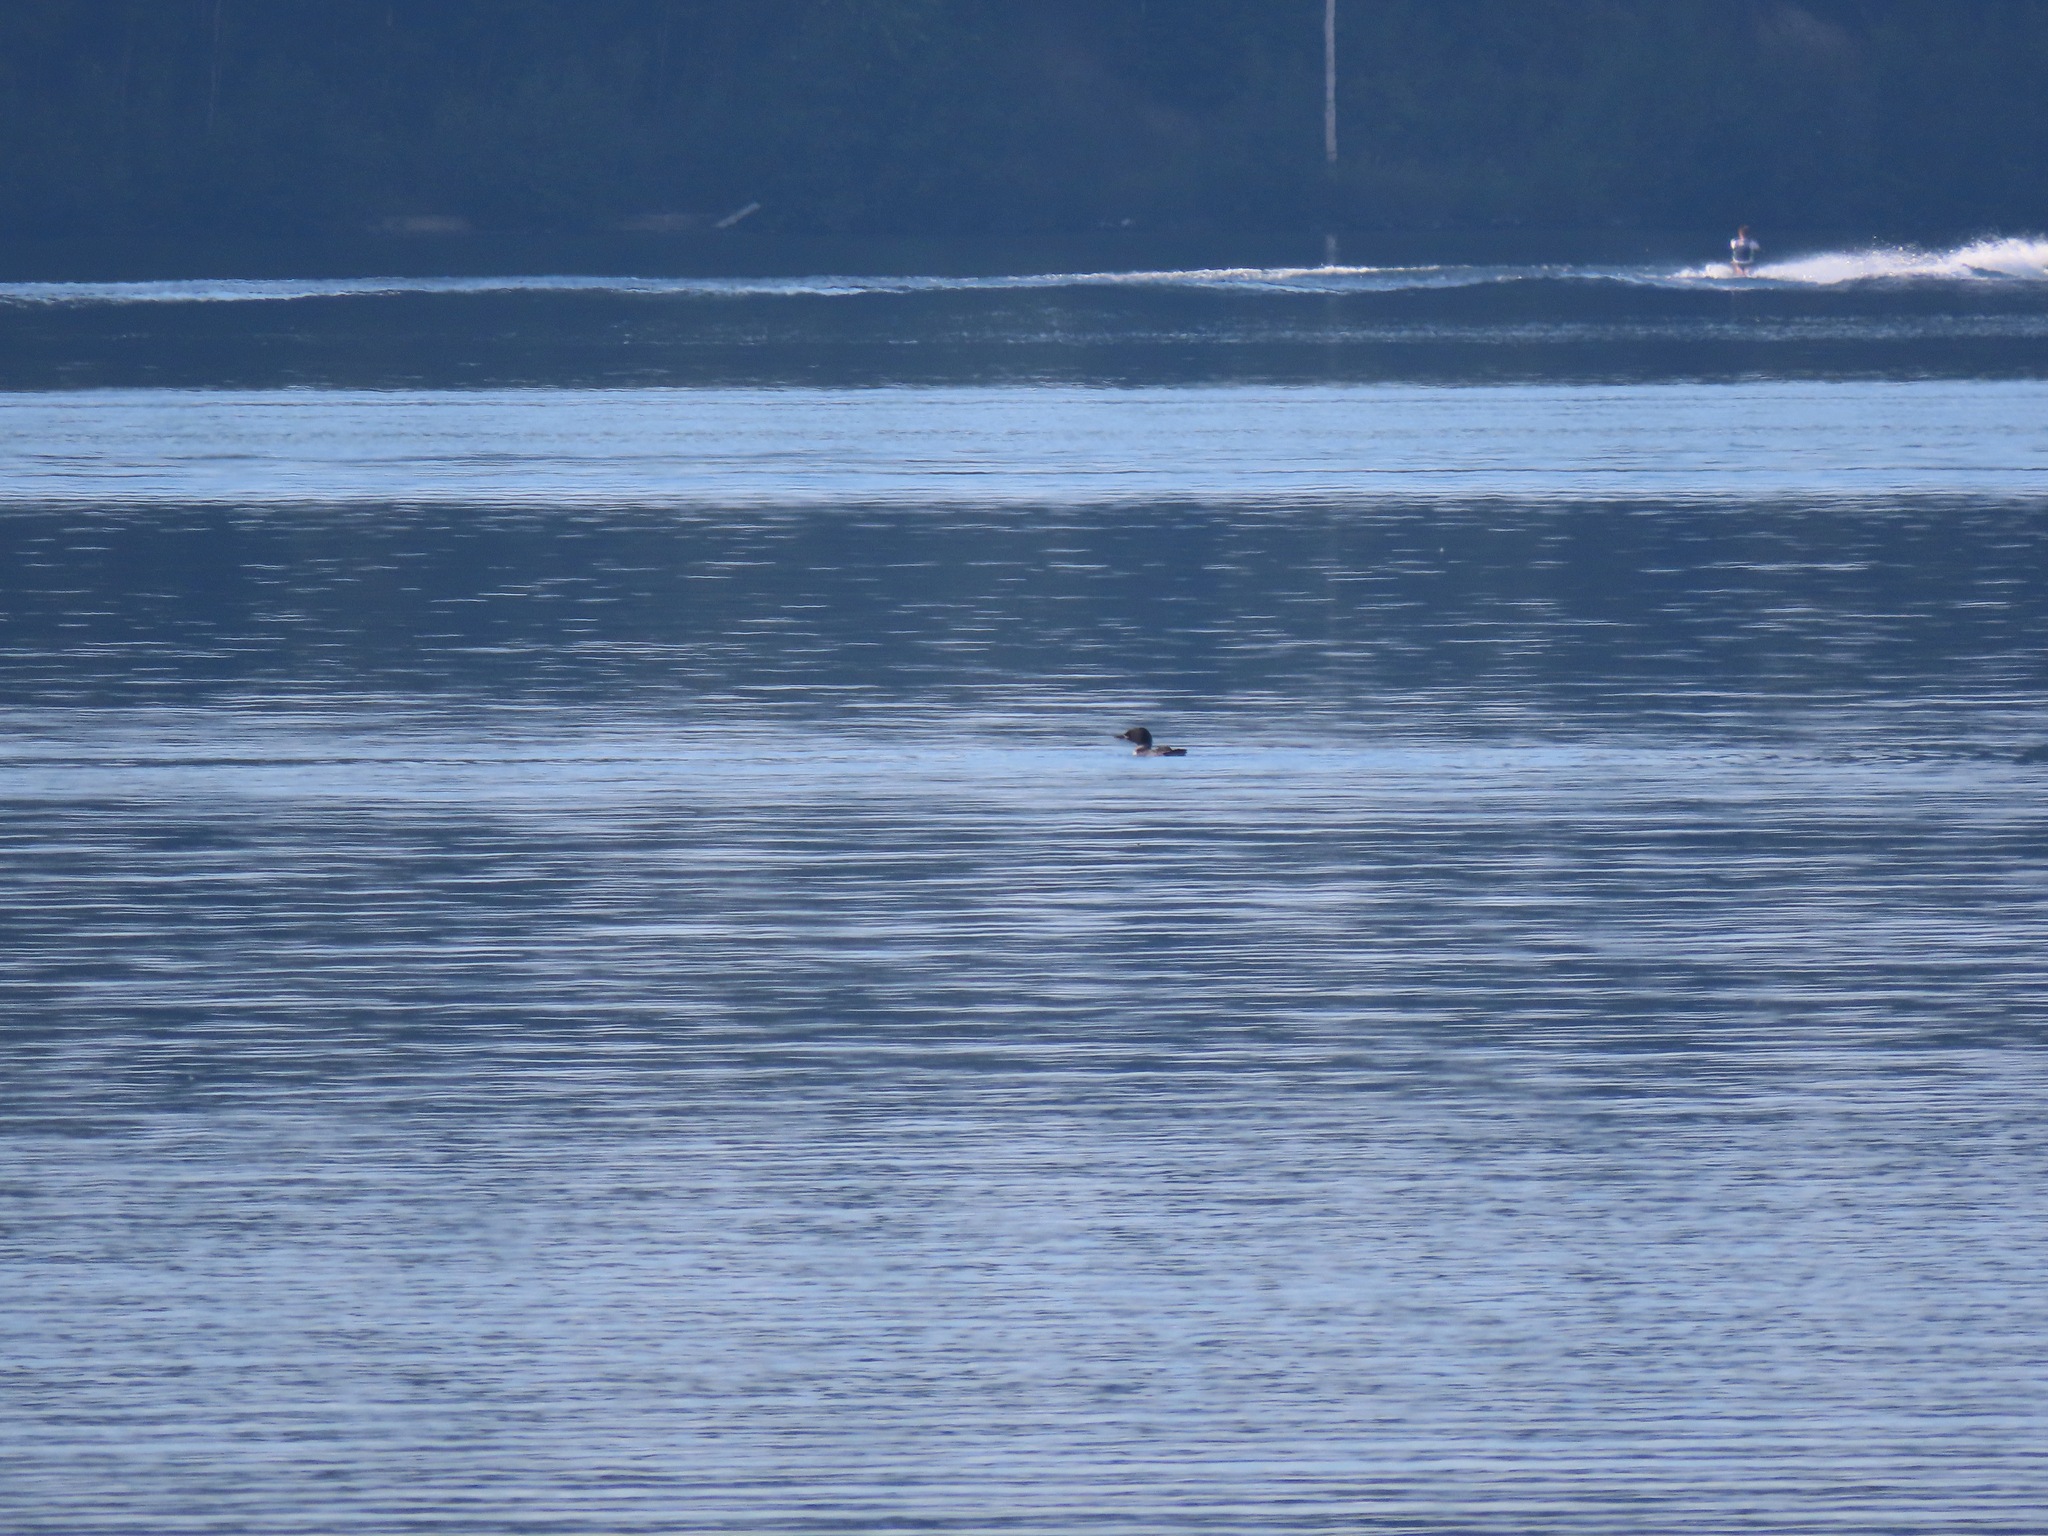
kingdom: Animalia
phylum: Chordata
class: Aves
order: Gaviiformes
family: Gaviidae
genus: Gavia
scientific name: Gavia immer
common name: Common loon
